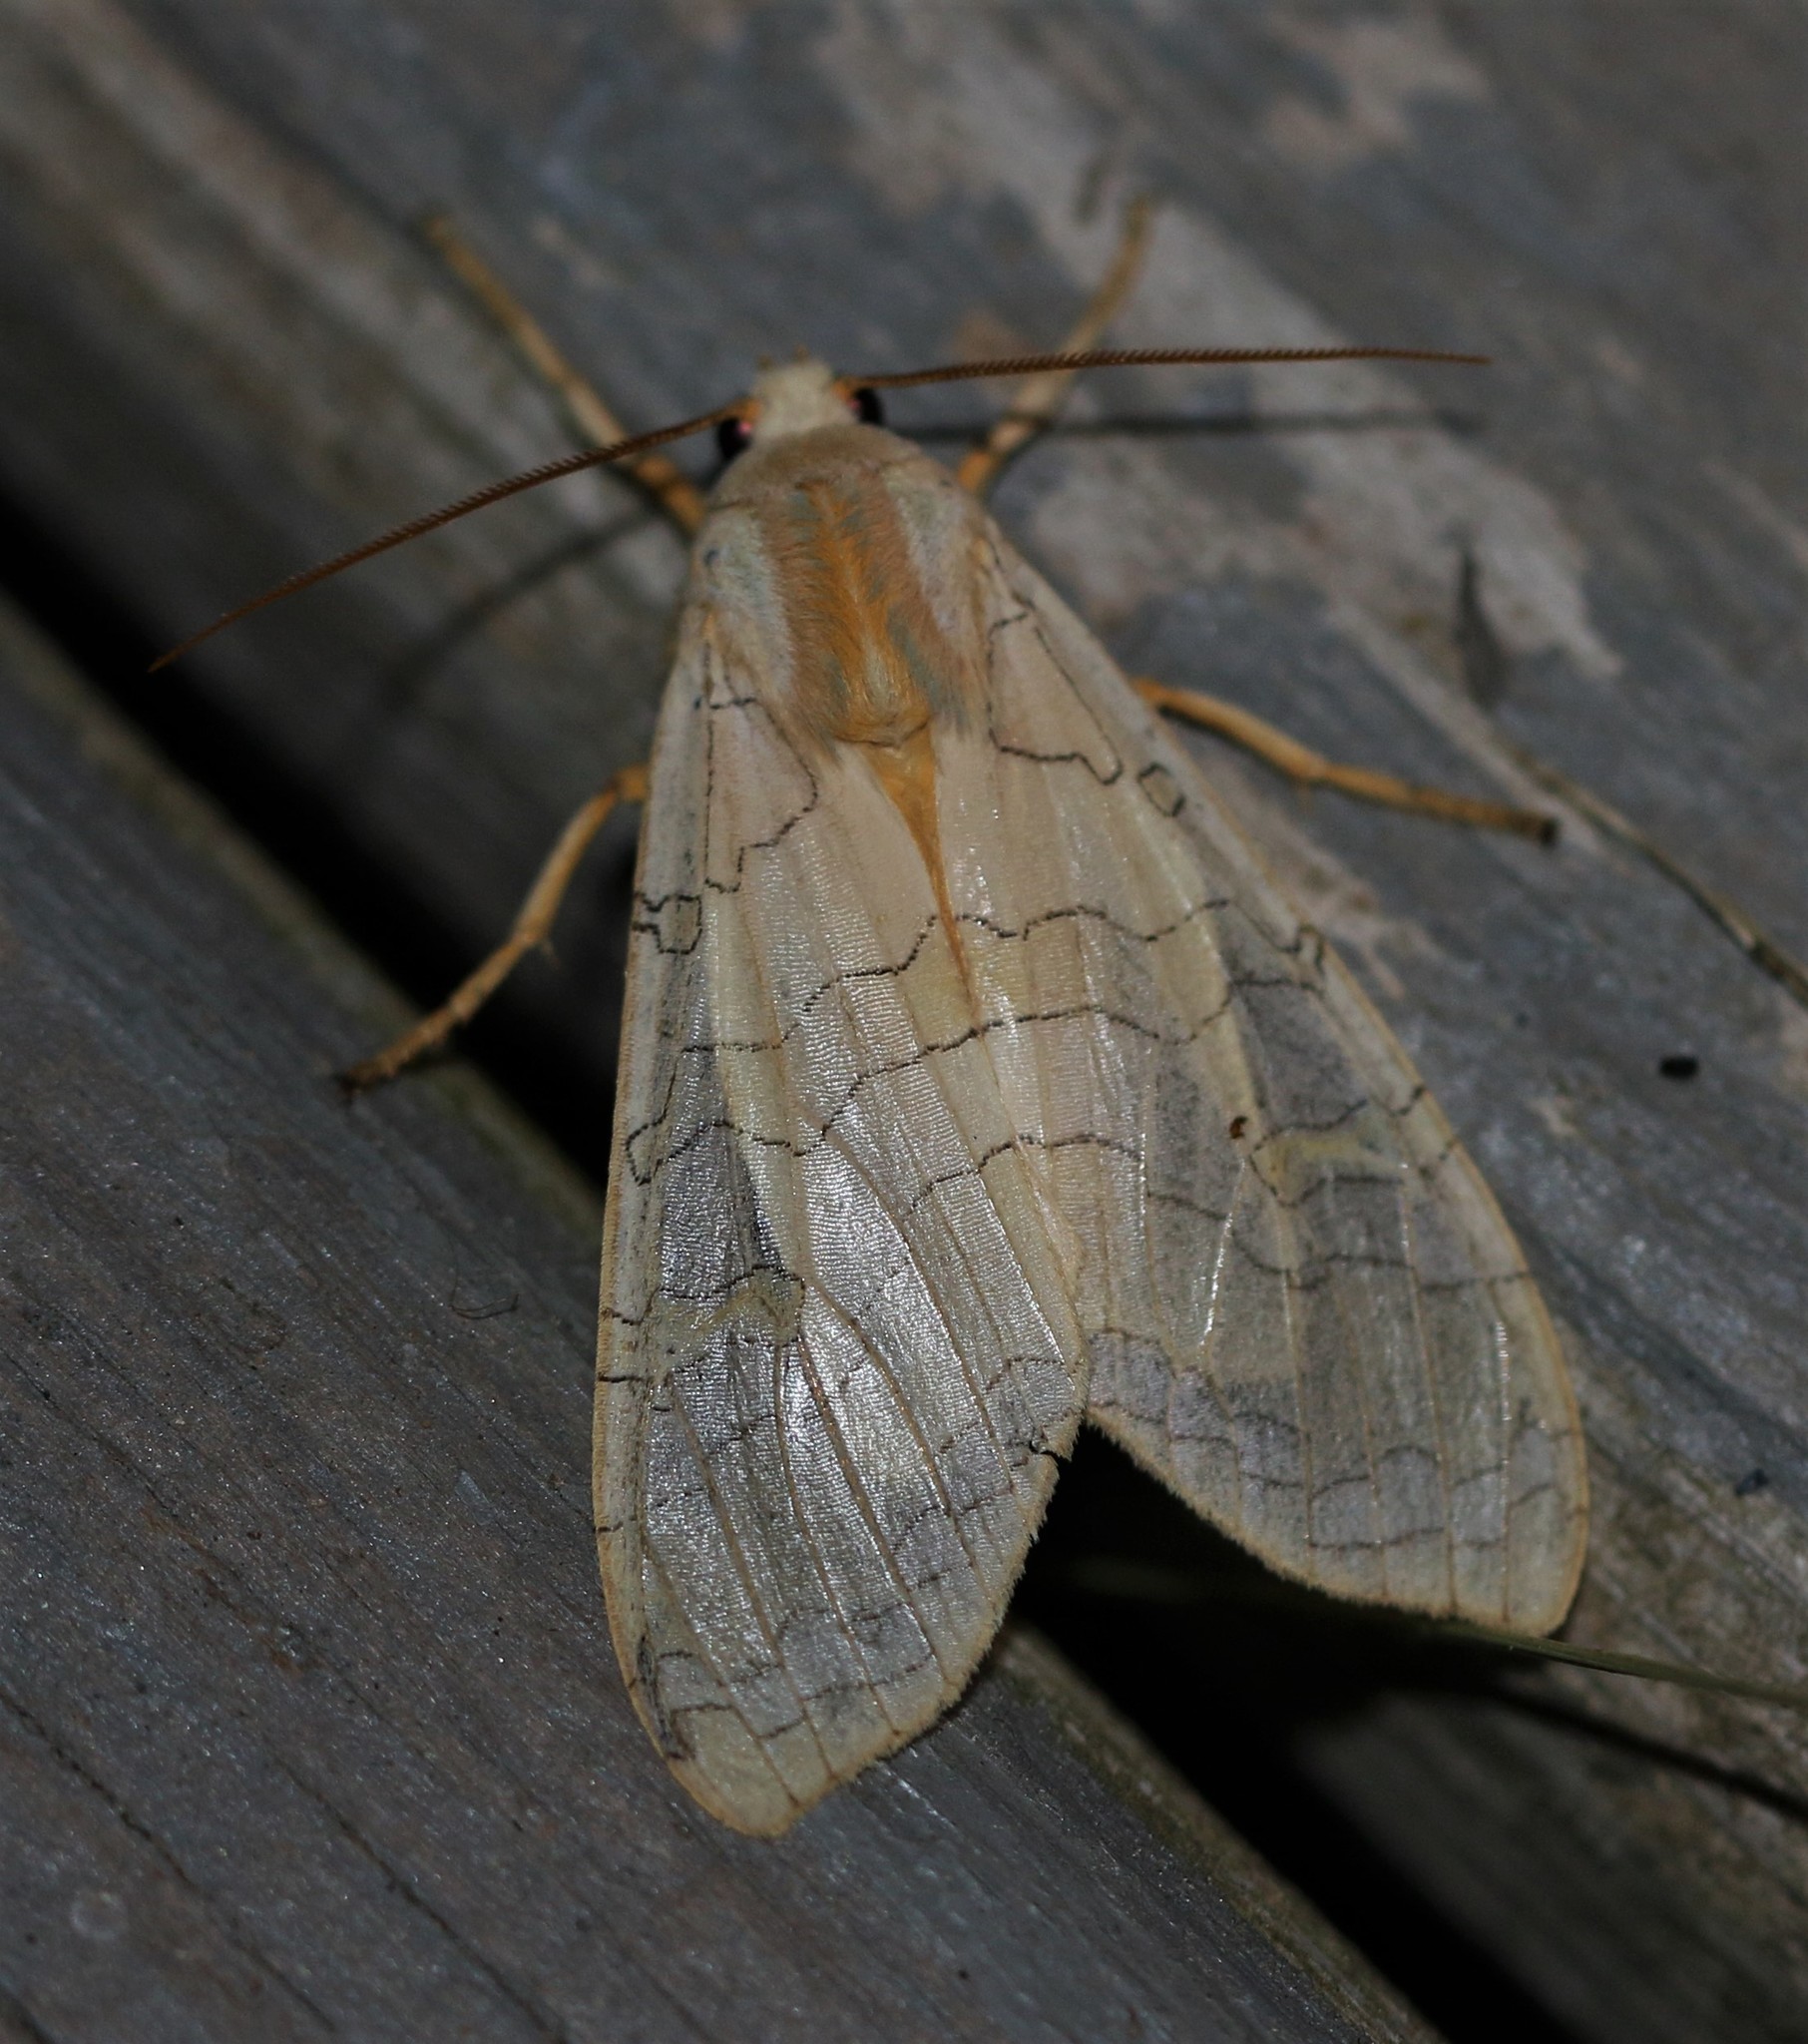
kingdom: Animalia
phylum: Arthropoda
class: Insecta
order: Lepidoptera
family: Erebidae
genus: Halysidota
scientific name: Halysidota tessellaris
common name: Banded tussock moth
